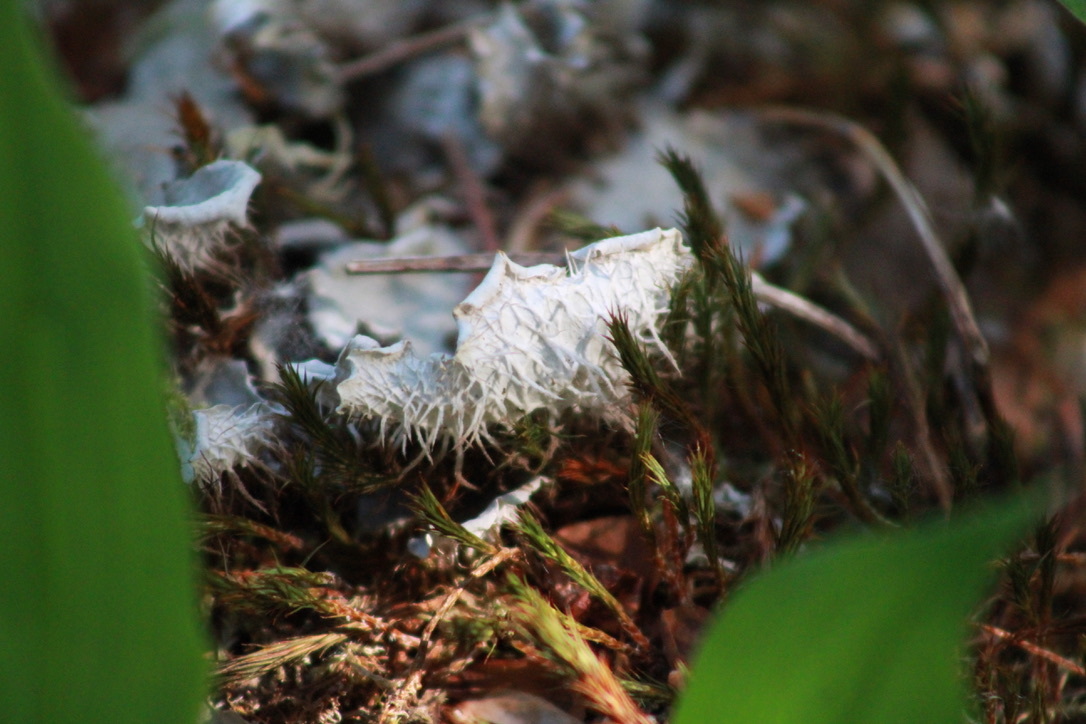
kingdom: Fungi
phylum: Ascomycota
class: Lecanoromycetes
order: Peltigerales
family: Peltigeraceae
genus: Peltigera
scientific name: Peltigera membranacea
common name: Membranous pelt lichen
